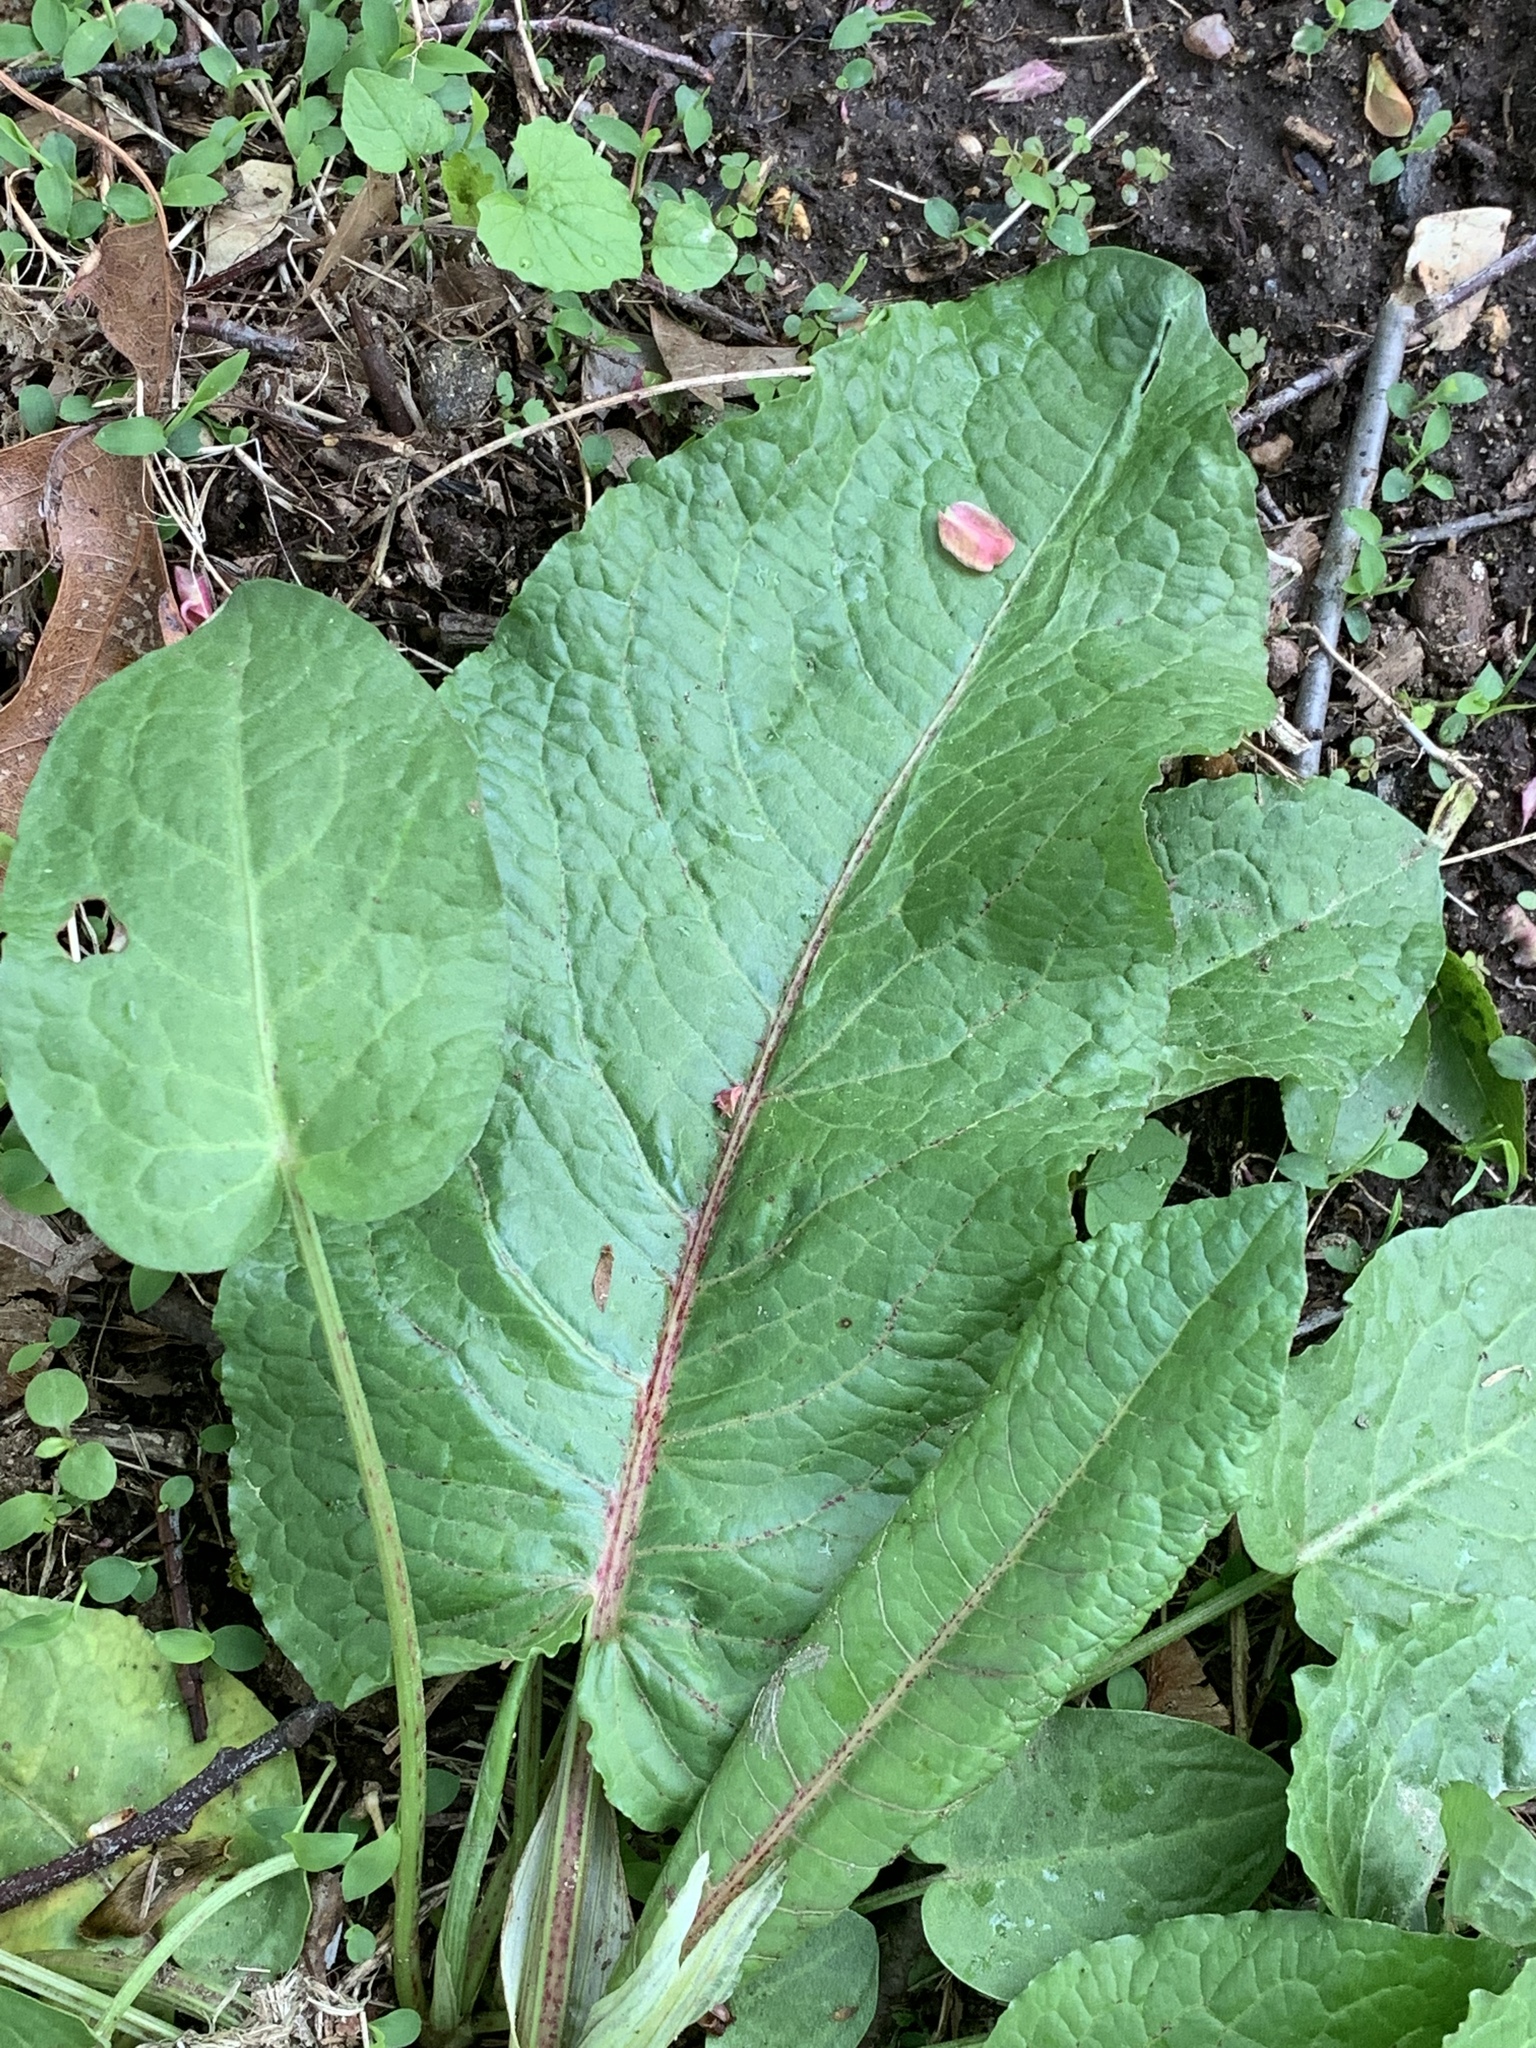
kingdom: Plantae
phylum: Tracheophyta
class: Magnoliopsida
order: Caryophyllales
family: Polygonaceae
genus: Rumex
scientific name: Rumex obtusifolius
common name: Bitter dock
